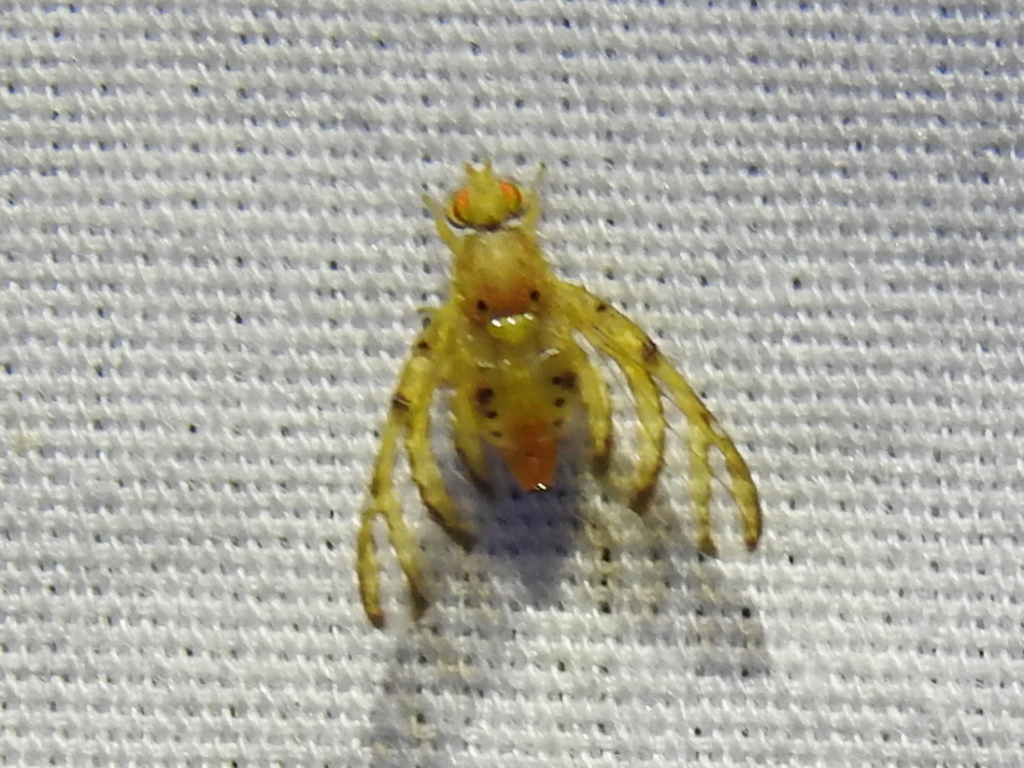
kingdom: Animalia
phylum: Arthropoda
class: Insecta
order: Diptera
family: Tephritidae
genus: Tomoplagia
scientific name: Tomoplagia obliqua
